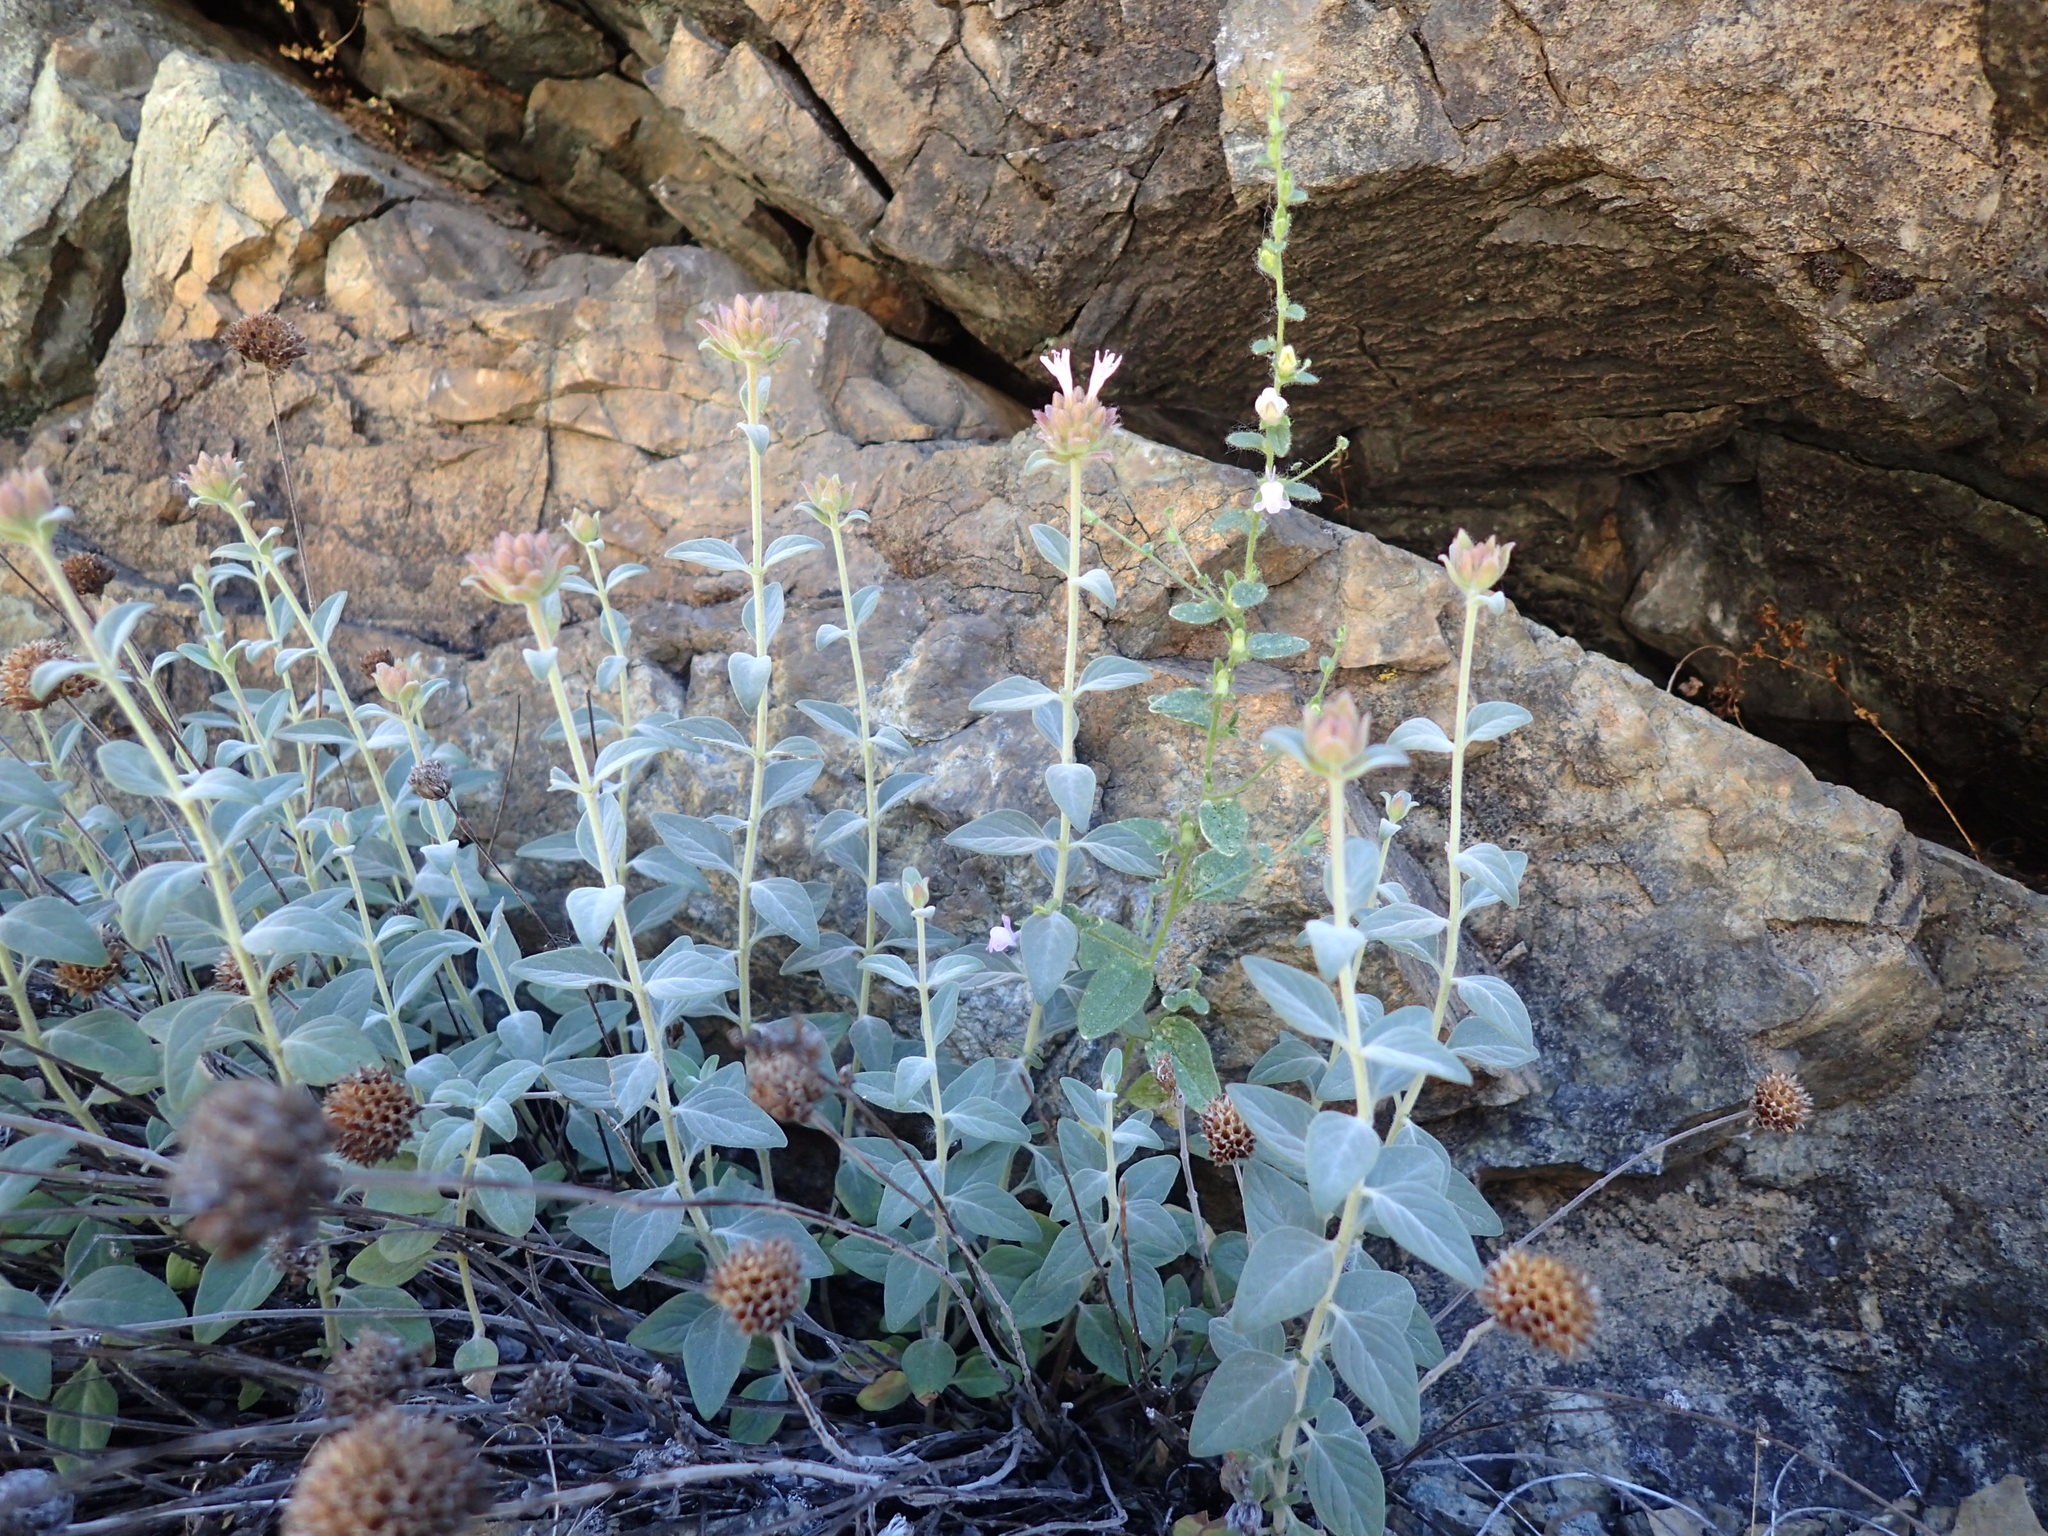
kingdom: Plantae
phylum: Tracheophyta
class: Magnoliopsida
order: Lamiales
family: Lamiaceae
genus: Monardella
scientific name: Monardella stebbinsii
